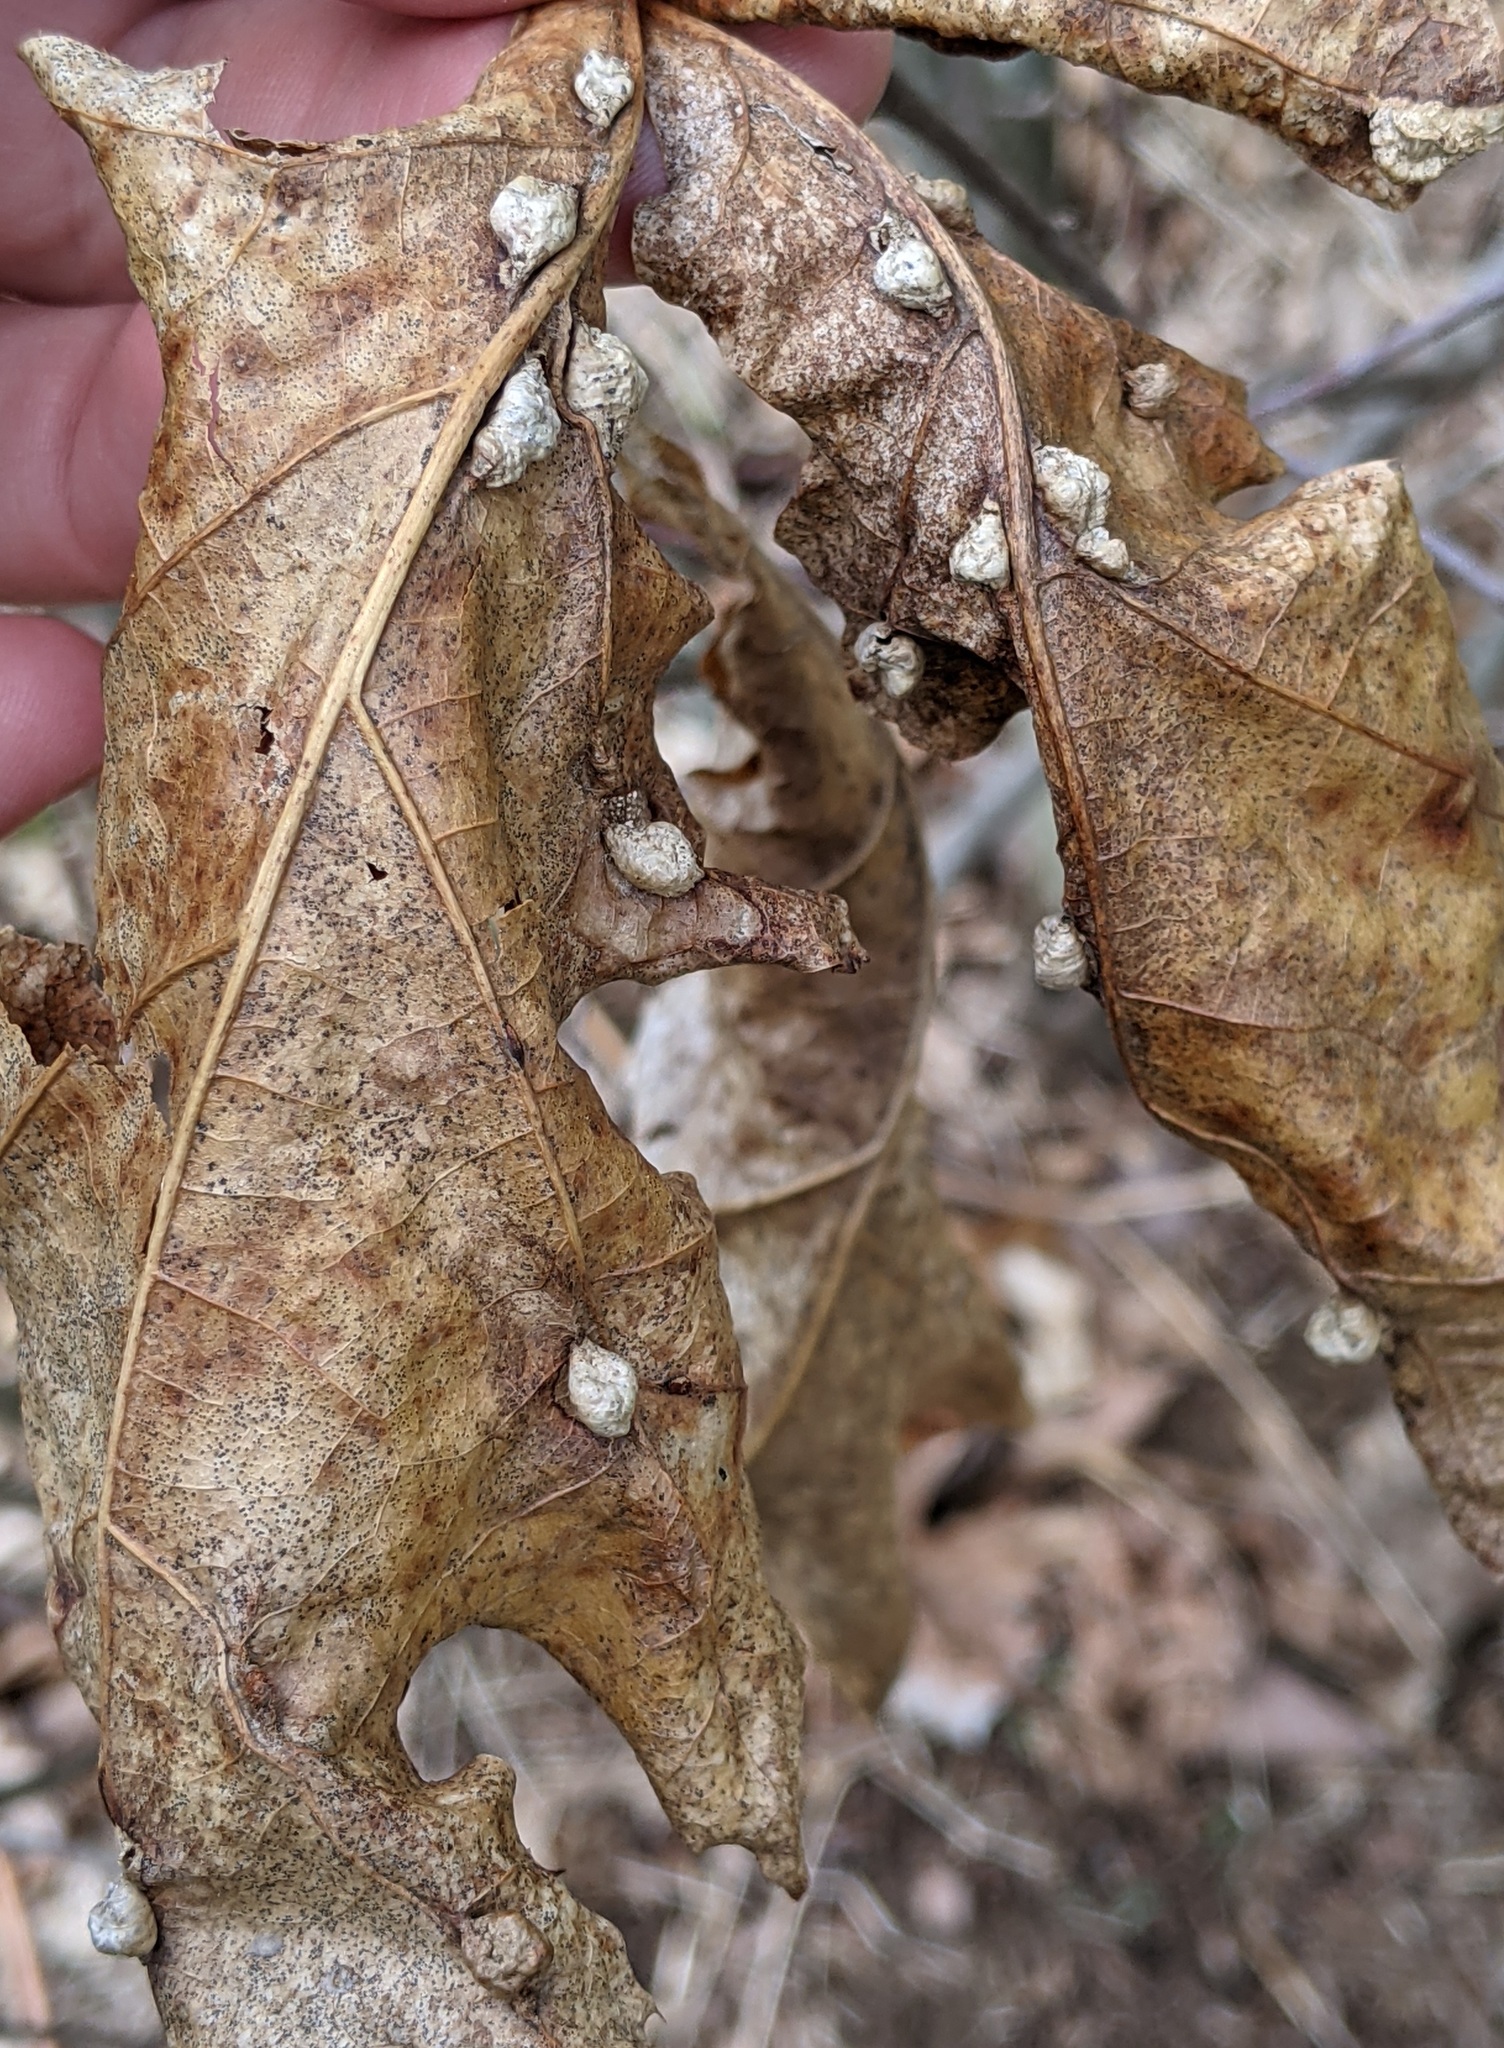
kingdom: Animalia
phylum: Arthropoda
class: Insecta
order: Diptera
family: Cecidomyiidae
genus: Macrodiplosis
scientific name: Macrodiplosis majalis
